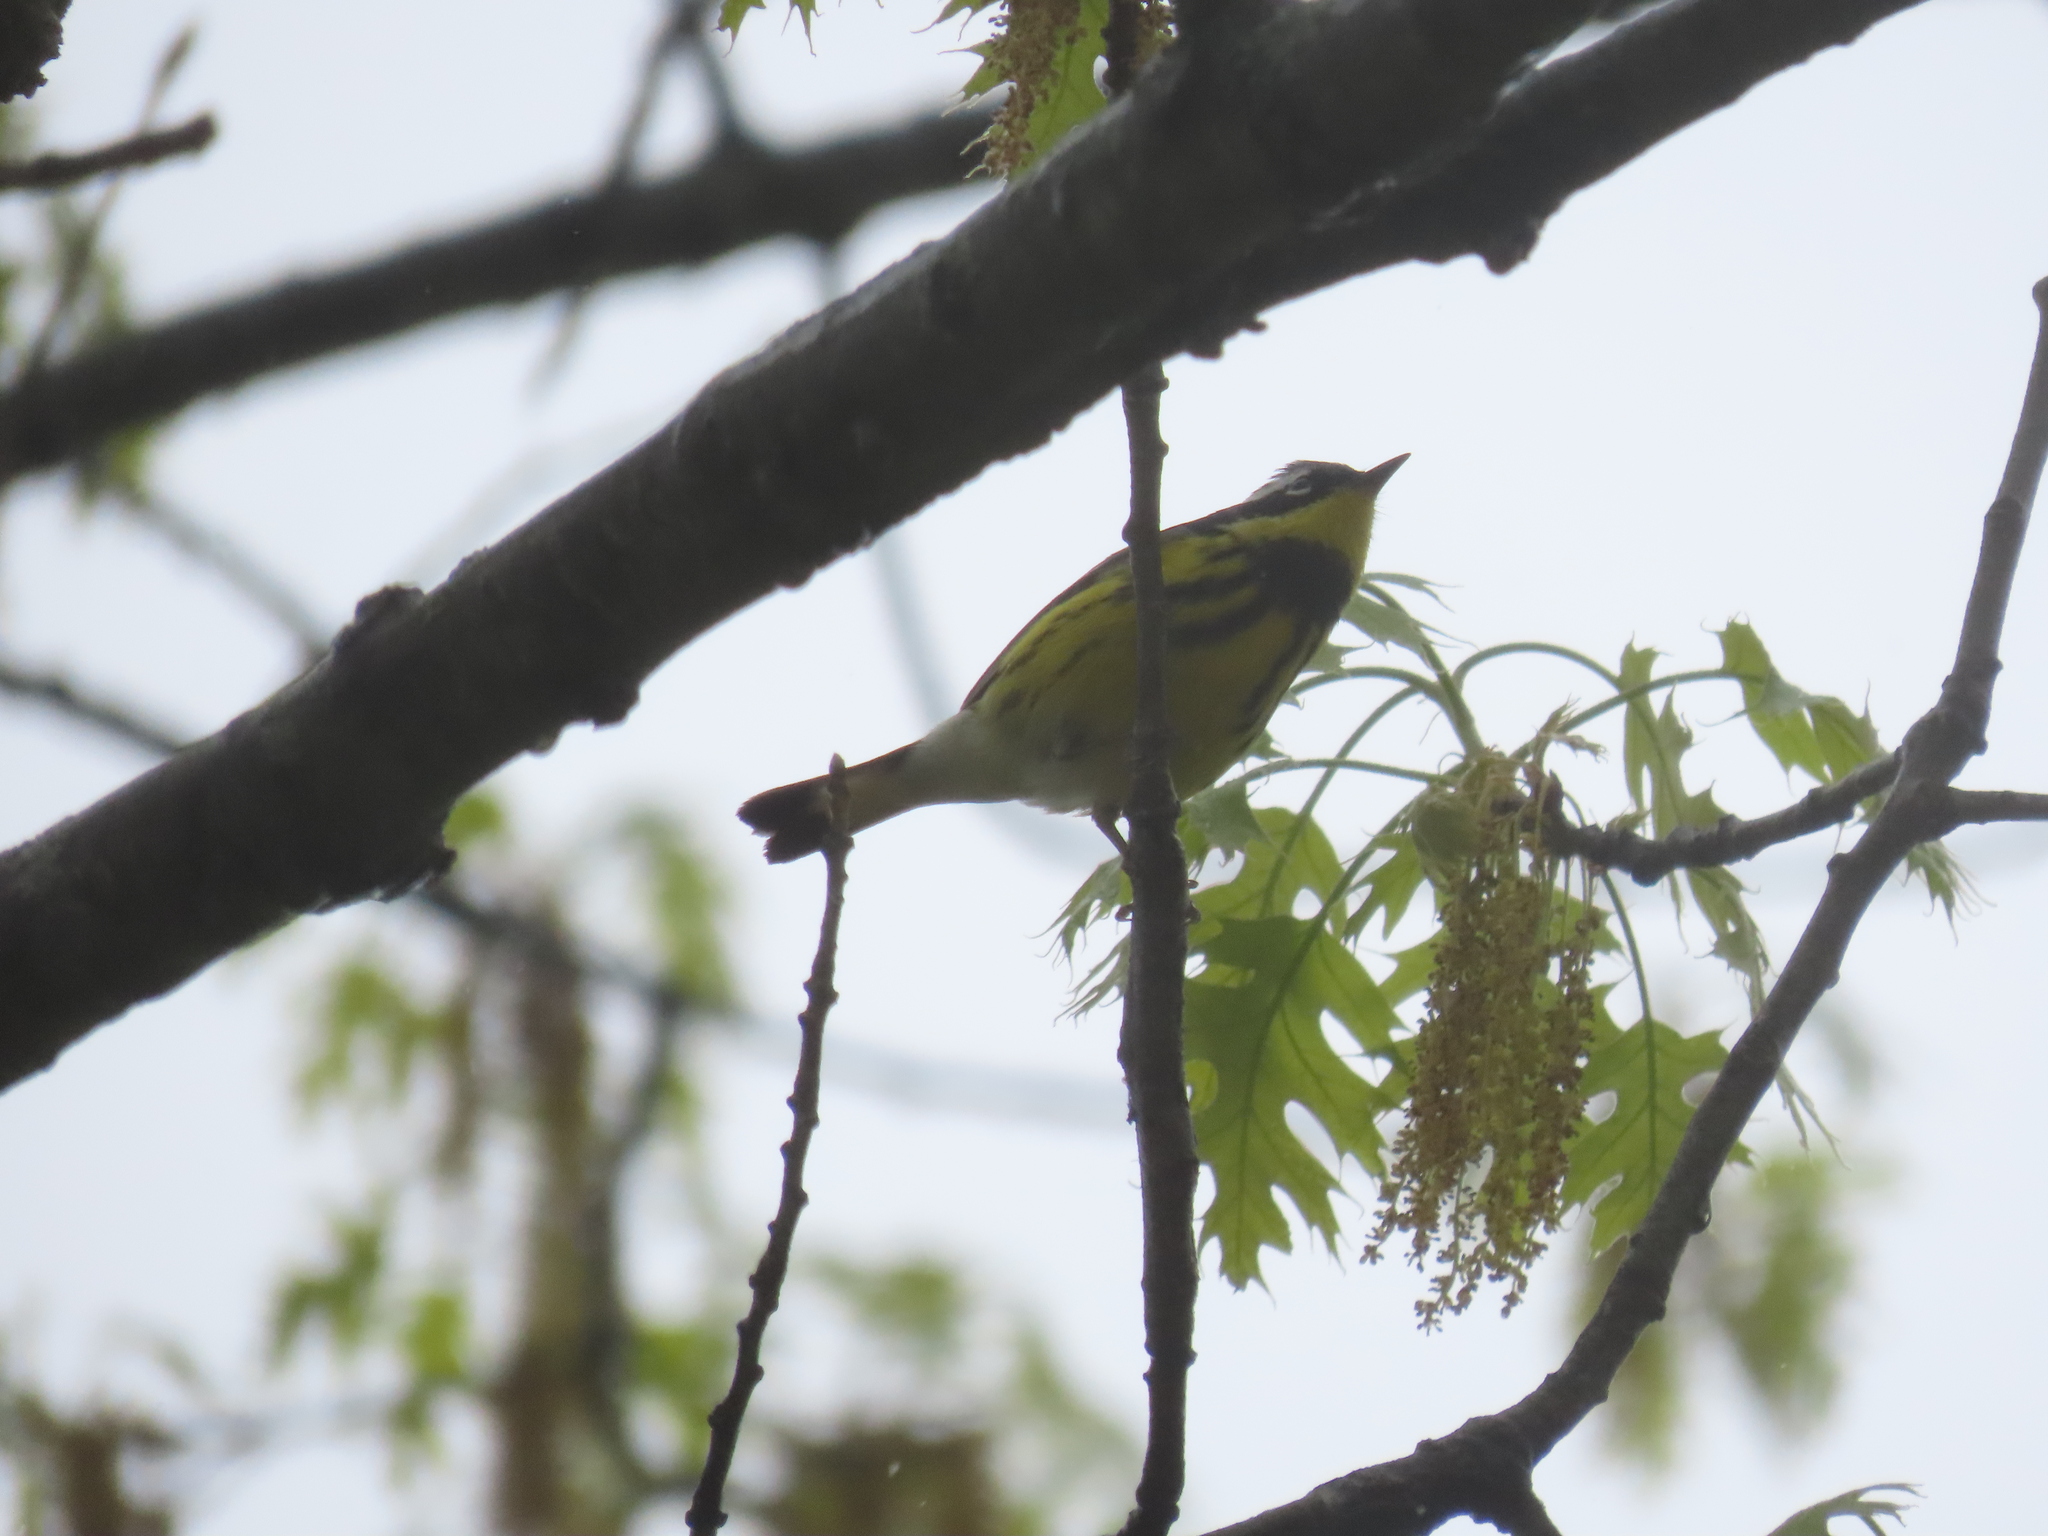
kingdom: Animalia
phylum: Chordata
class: Aves
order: Passeriformes
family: Parulidae
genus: Setophaga
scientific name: Setophaga magnolia
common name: Magnolia warbler
